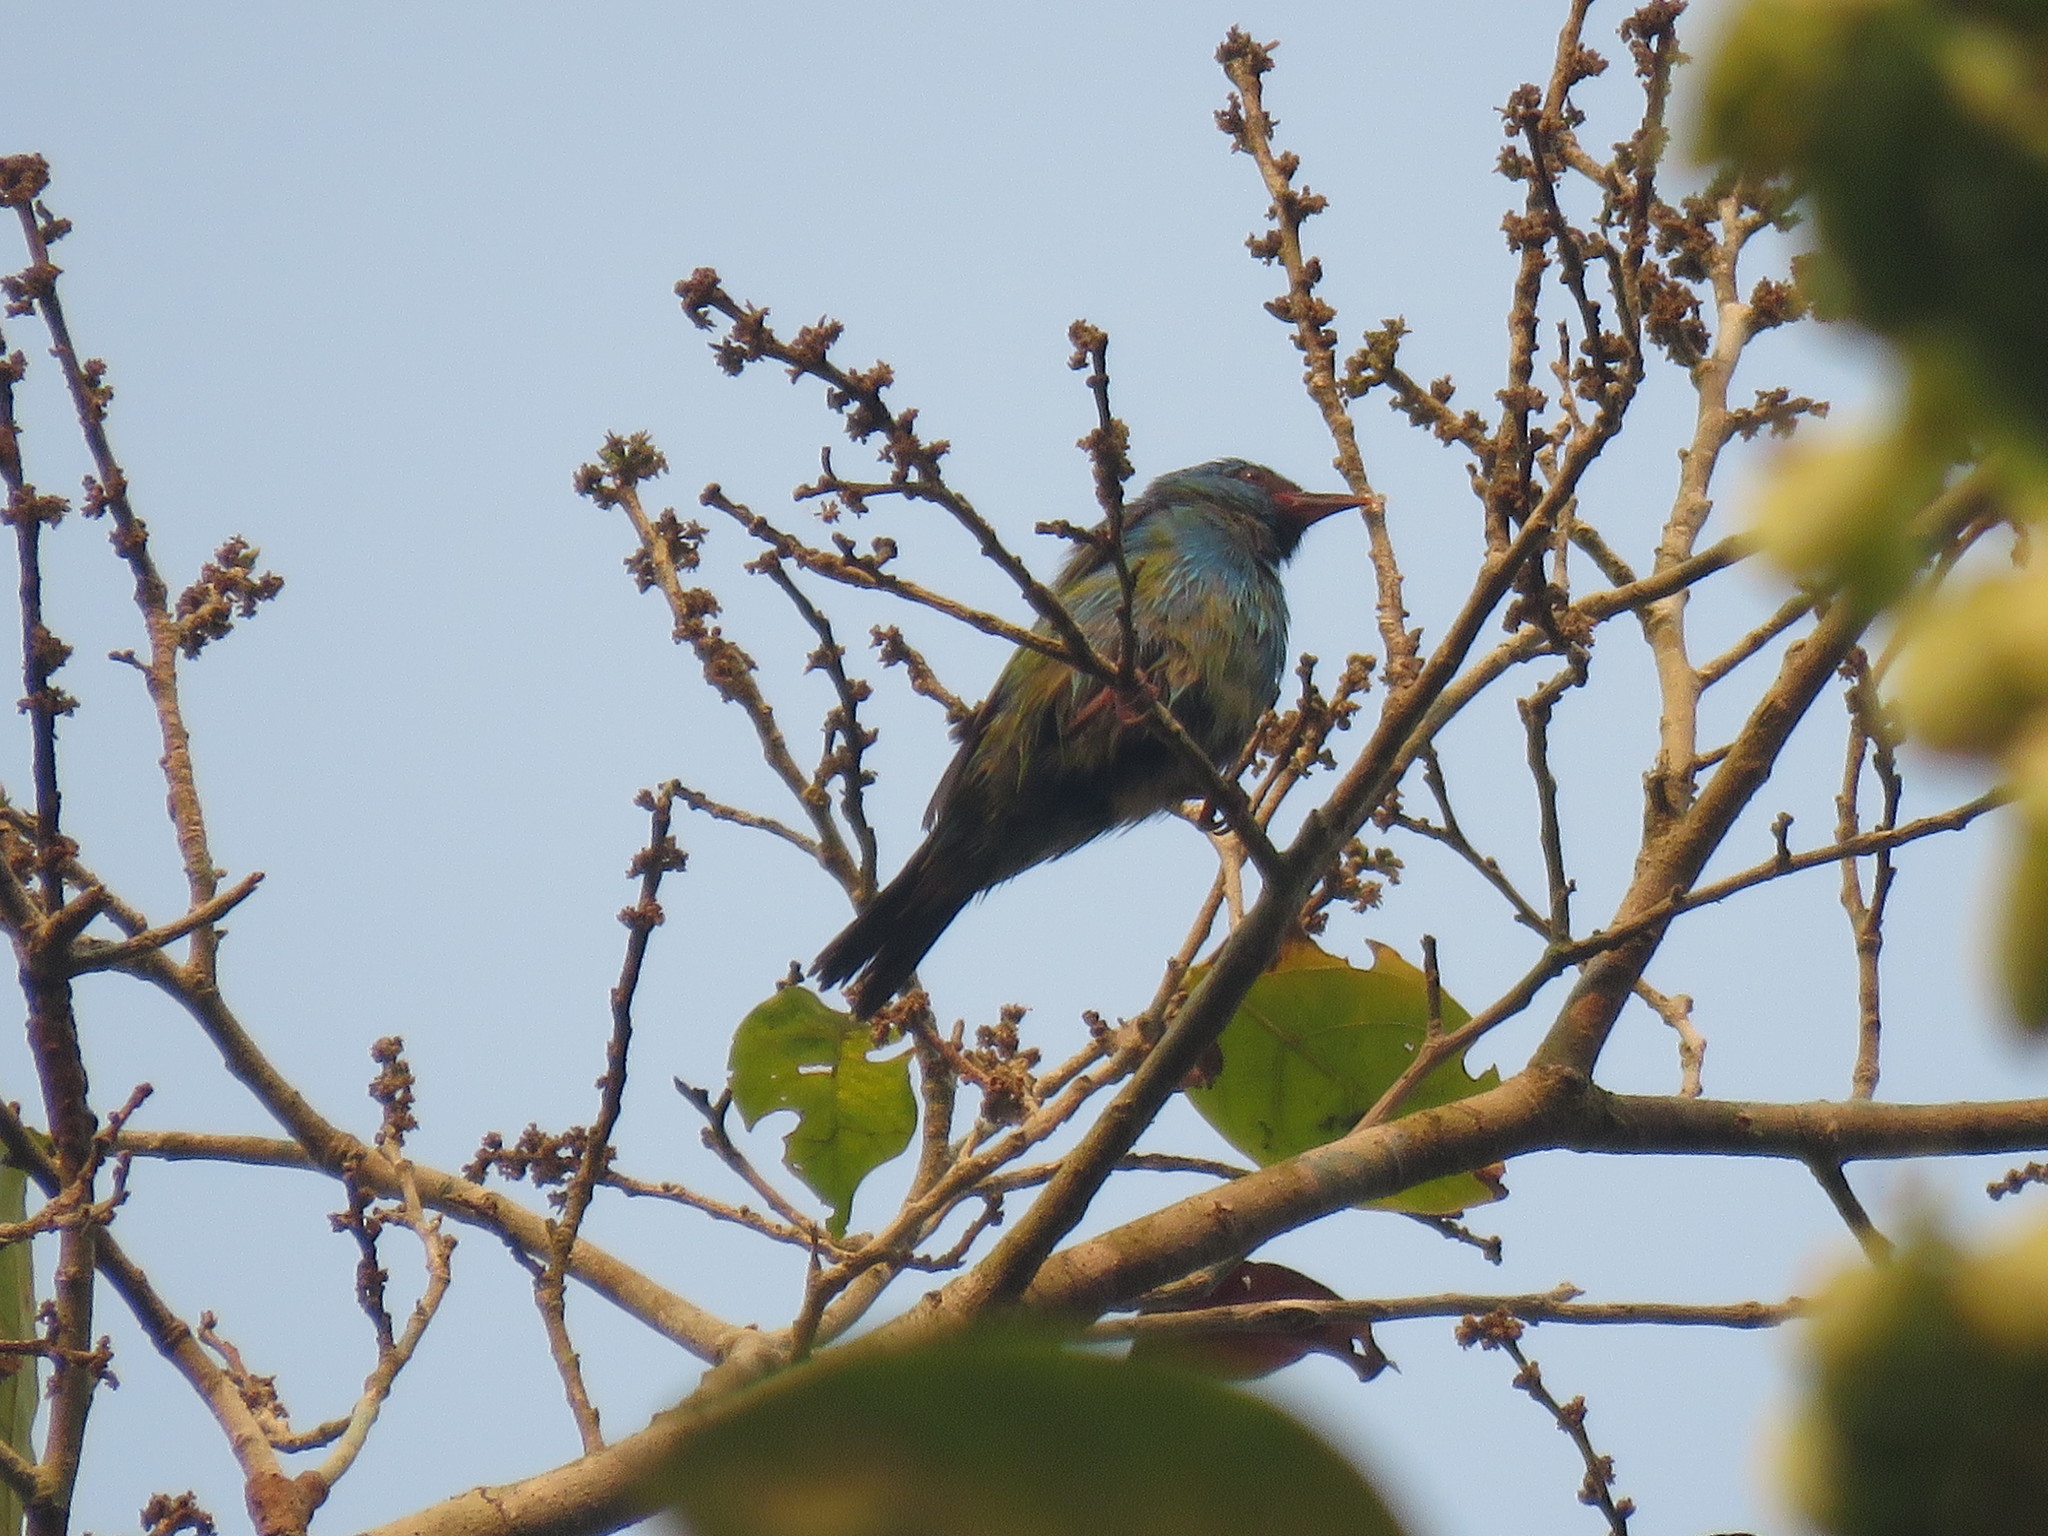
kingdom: Animalia
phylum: Chordata
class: Aves
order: Passeriformes
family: Thraupidae
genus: Dacnis
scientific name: Dacnis cayana
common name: Blue dacnis
